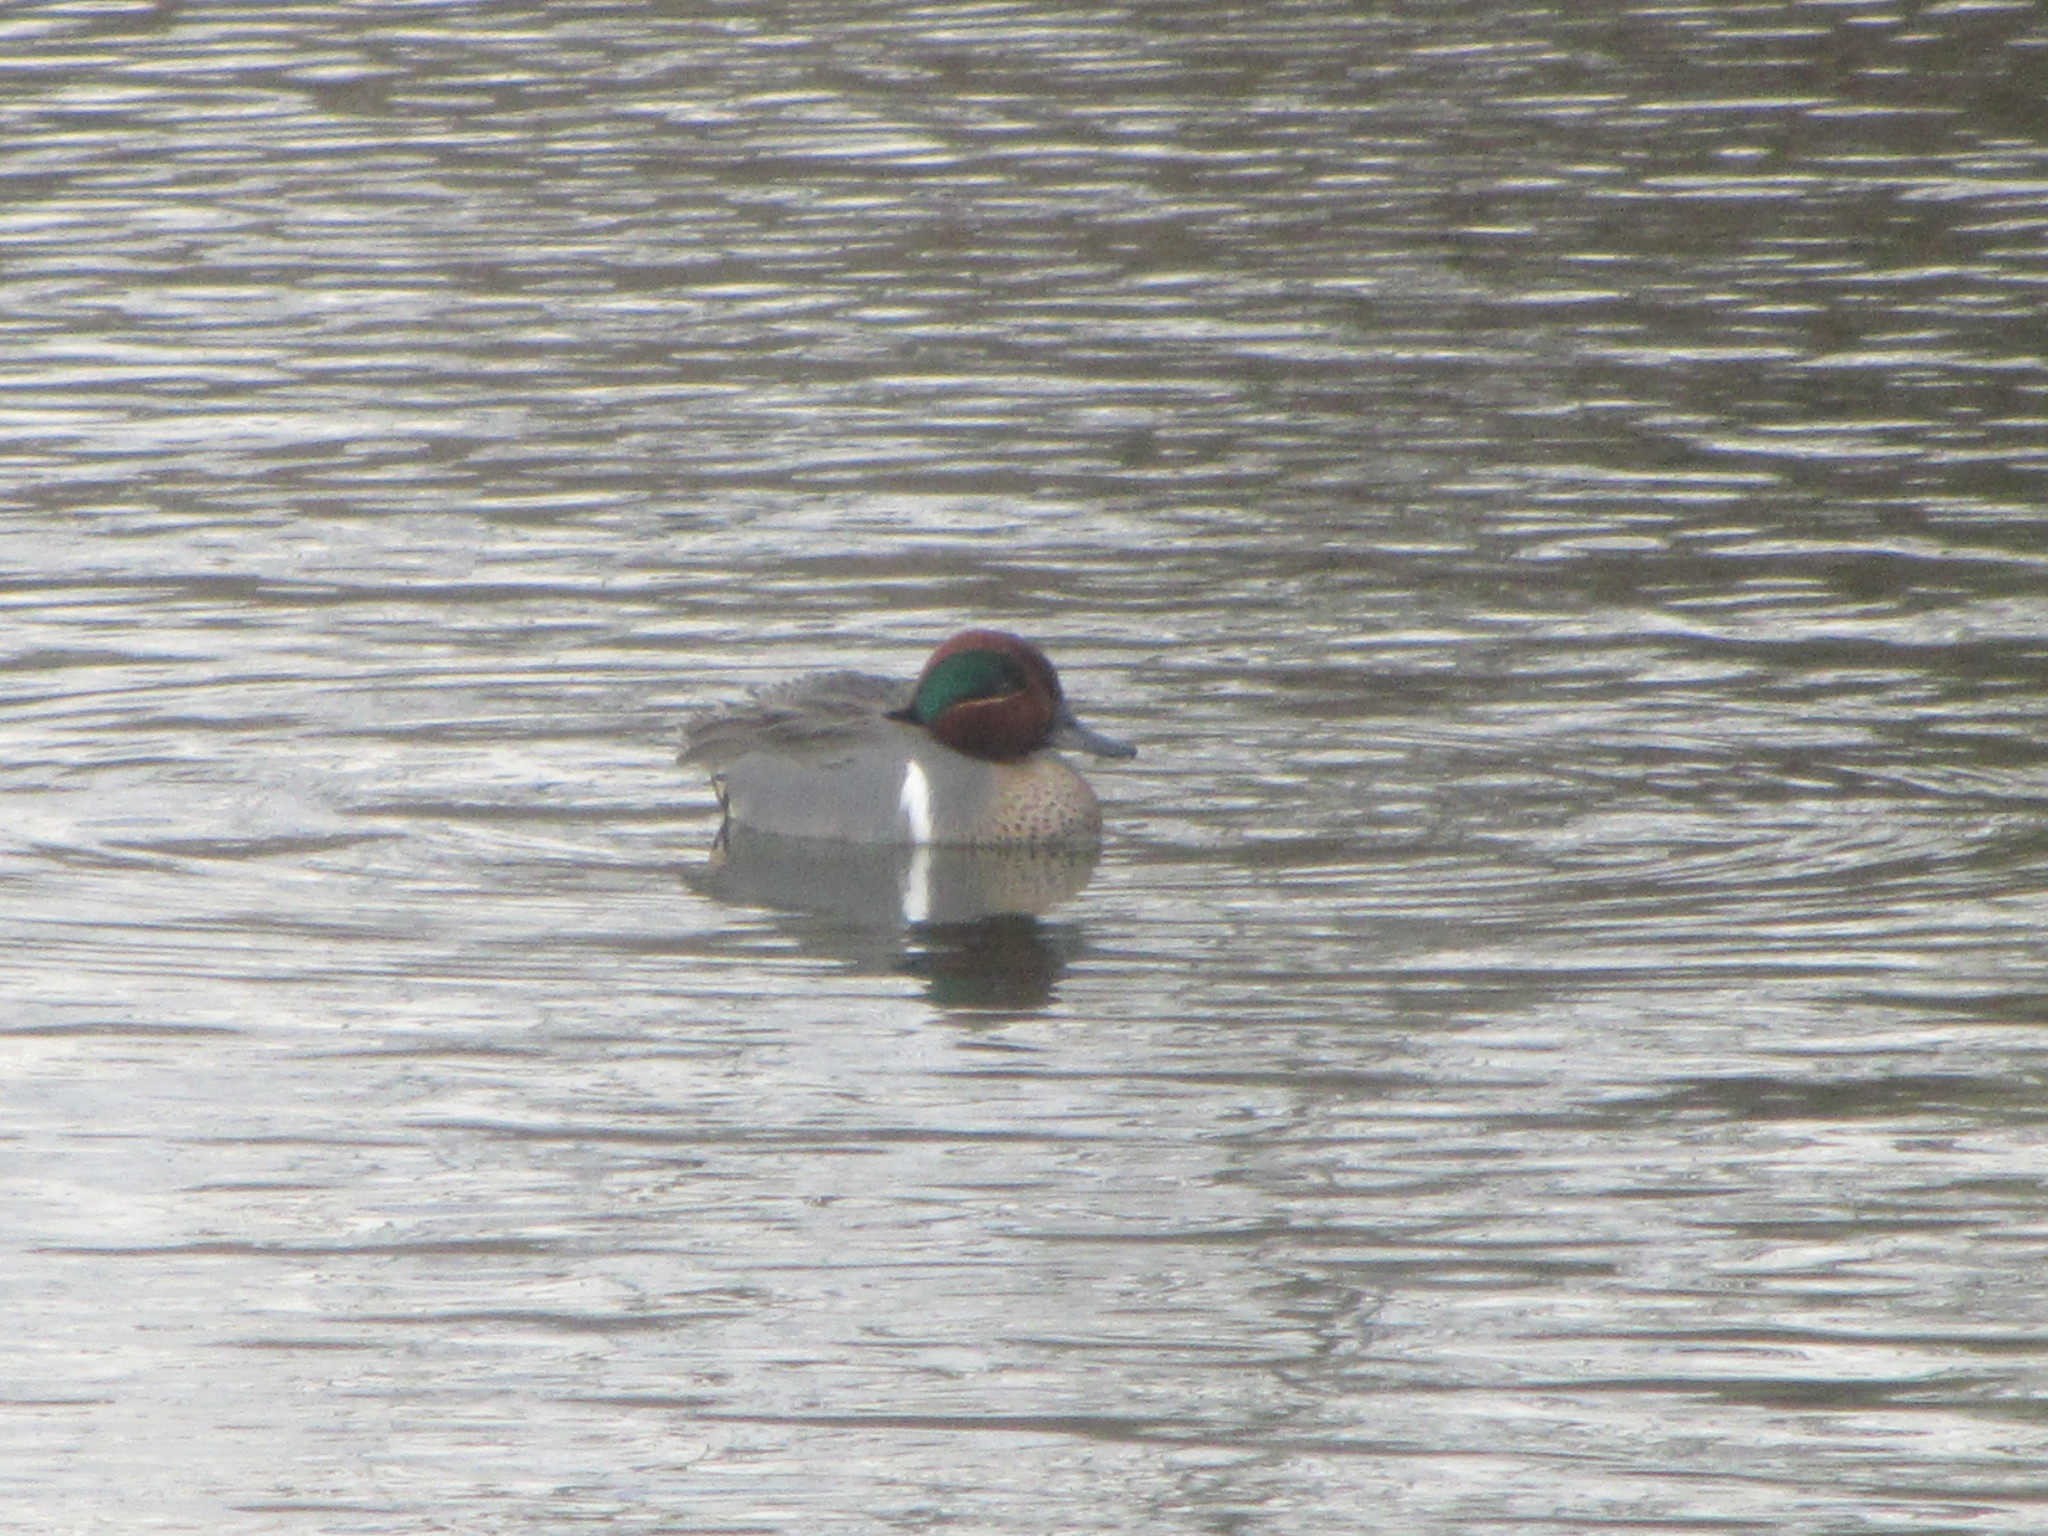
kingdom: Animalia
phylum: Chordata
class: Aves
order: Anseriformes
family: Anatidae
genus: Anas
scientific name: Anas crecca
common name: Eurasian teal
